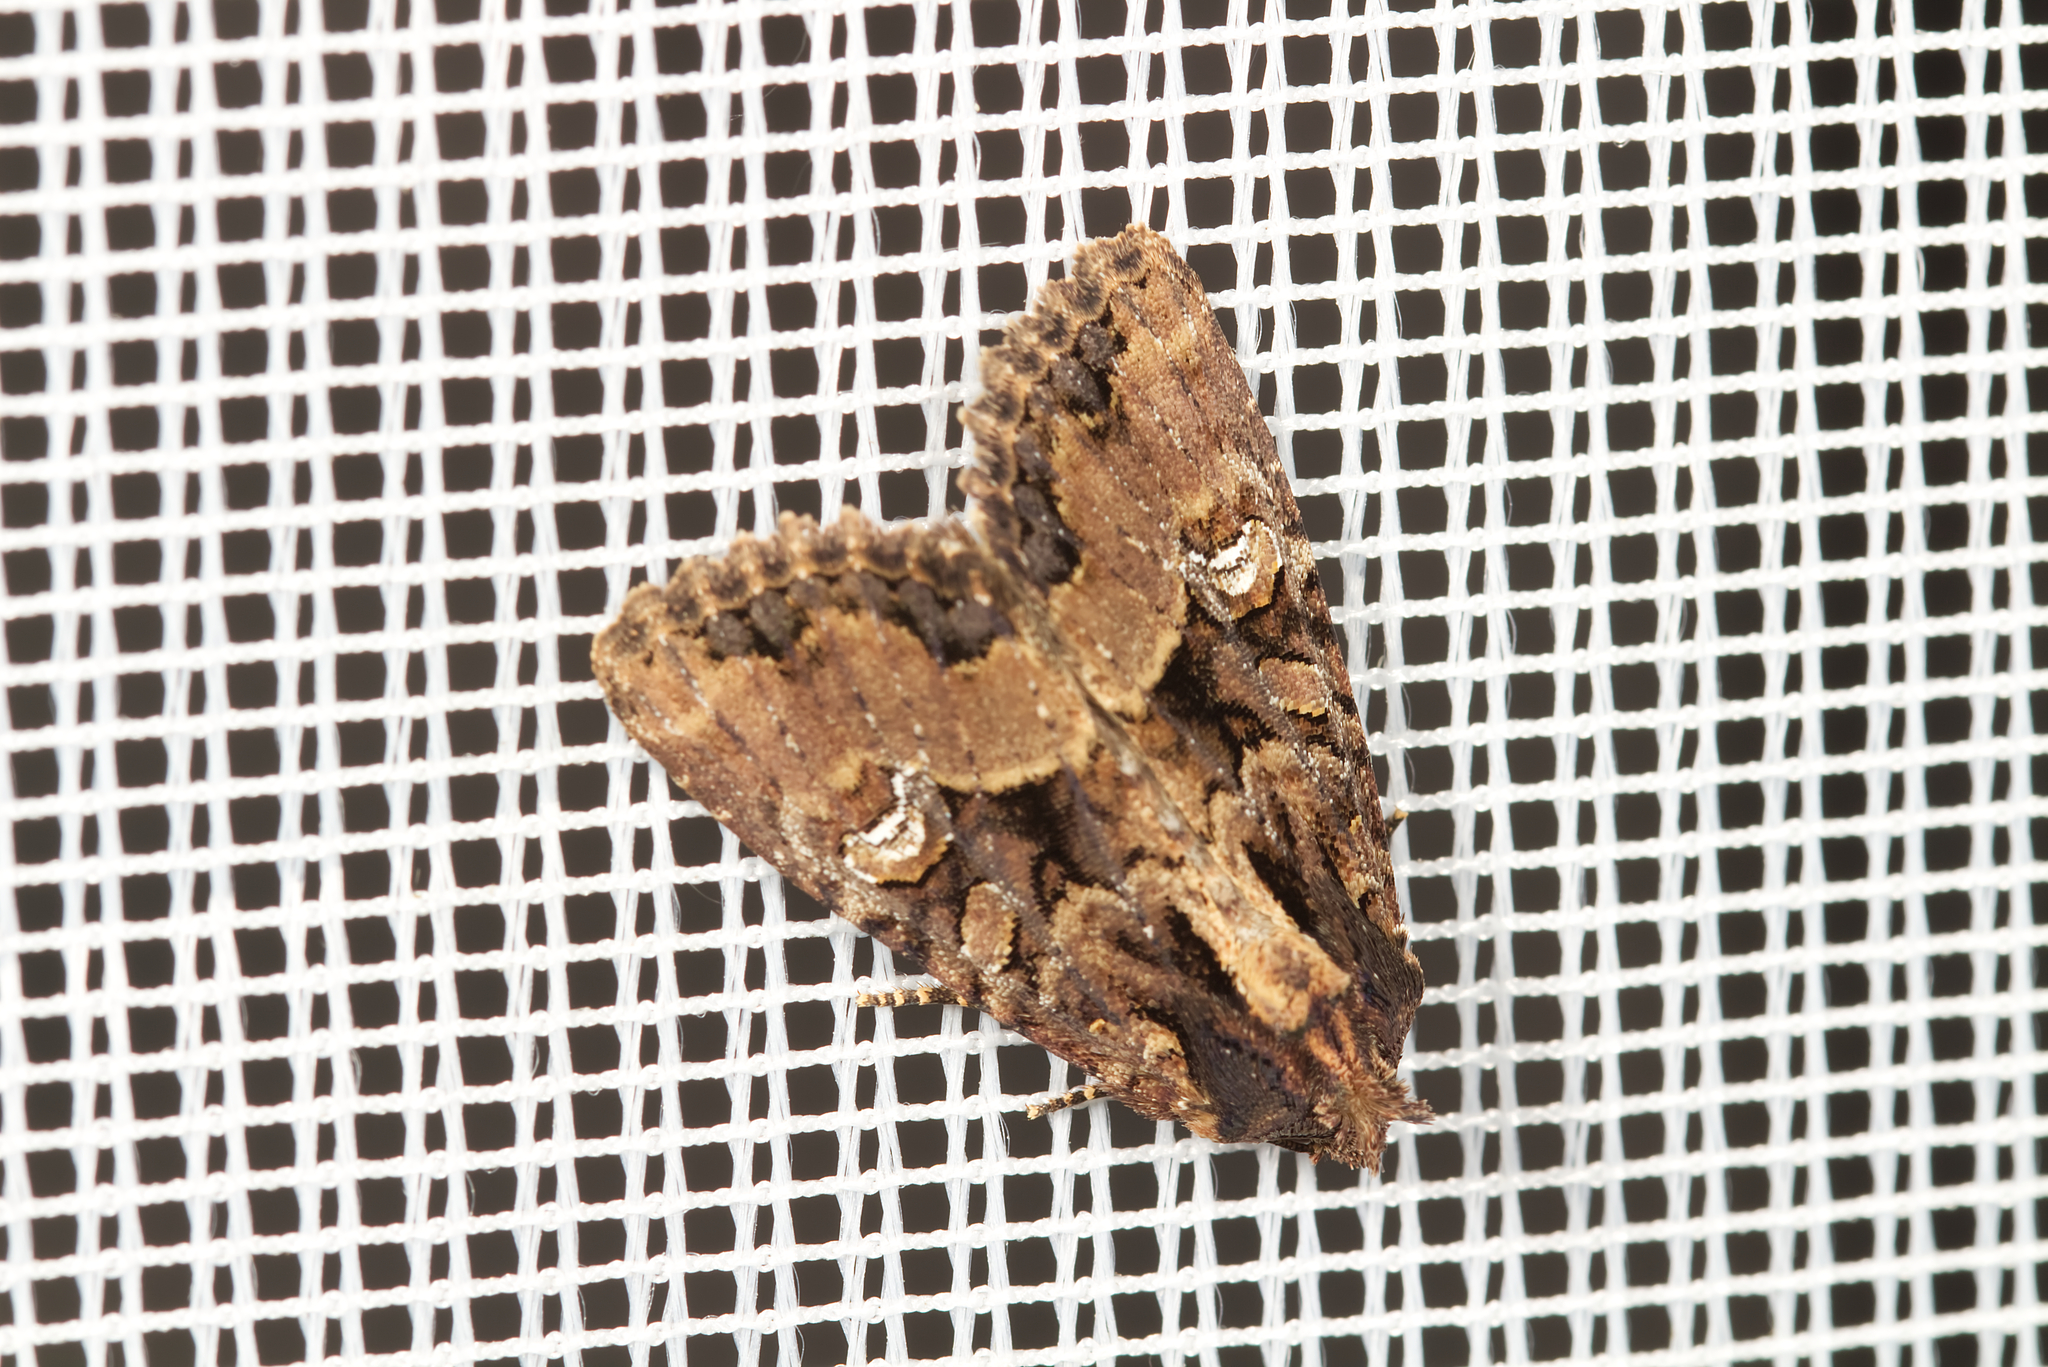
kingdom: Animalia
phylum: Arthropoda
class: Insecta
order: Lepidoptera
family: Noctuidae
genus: Mesapamea
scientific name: Mesapamea
